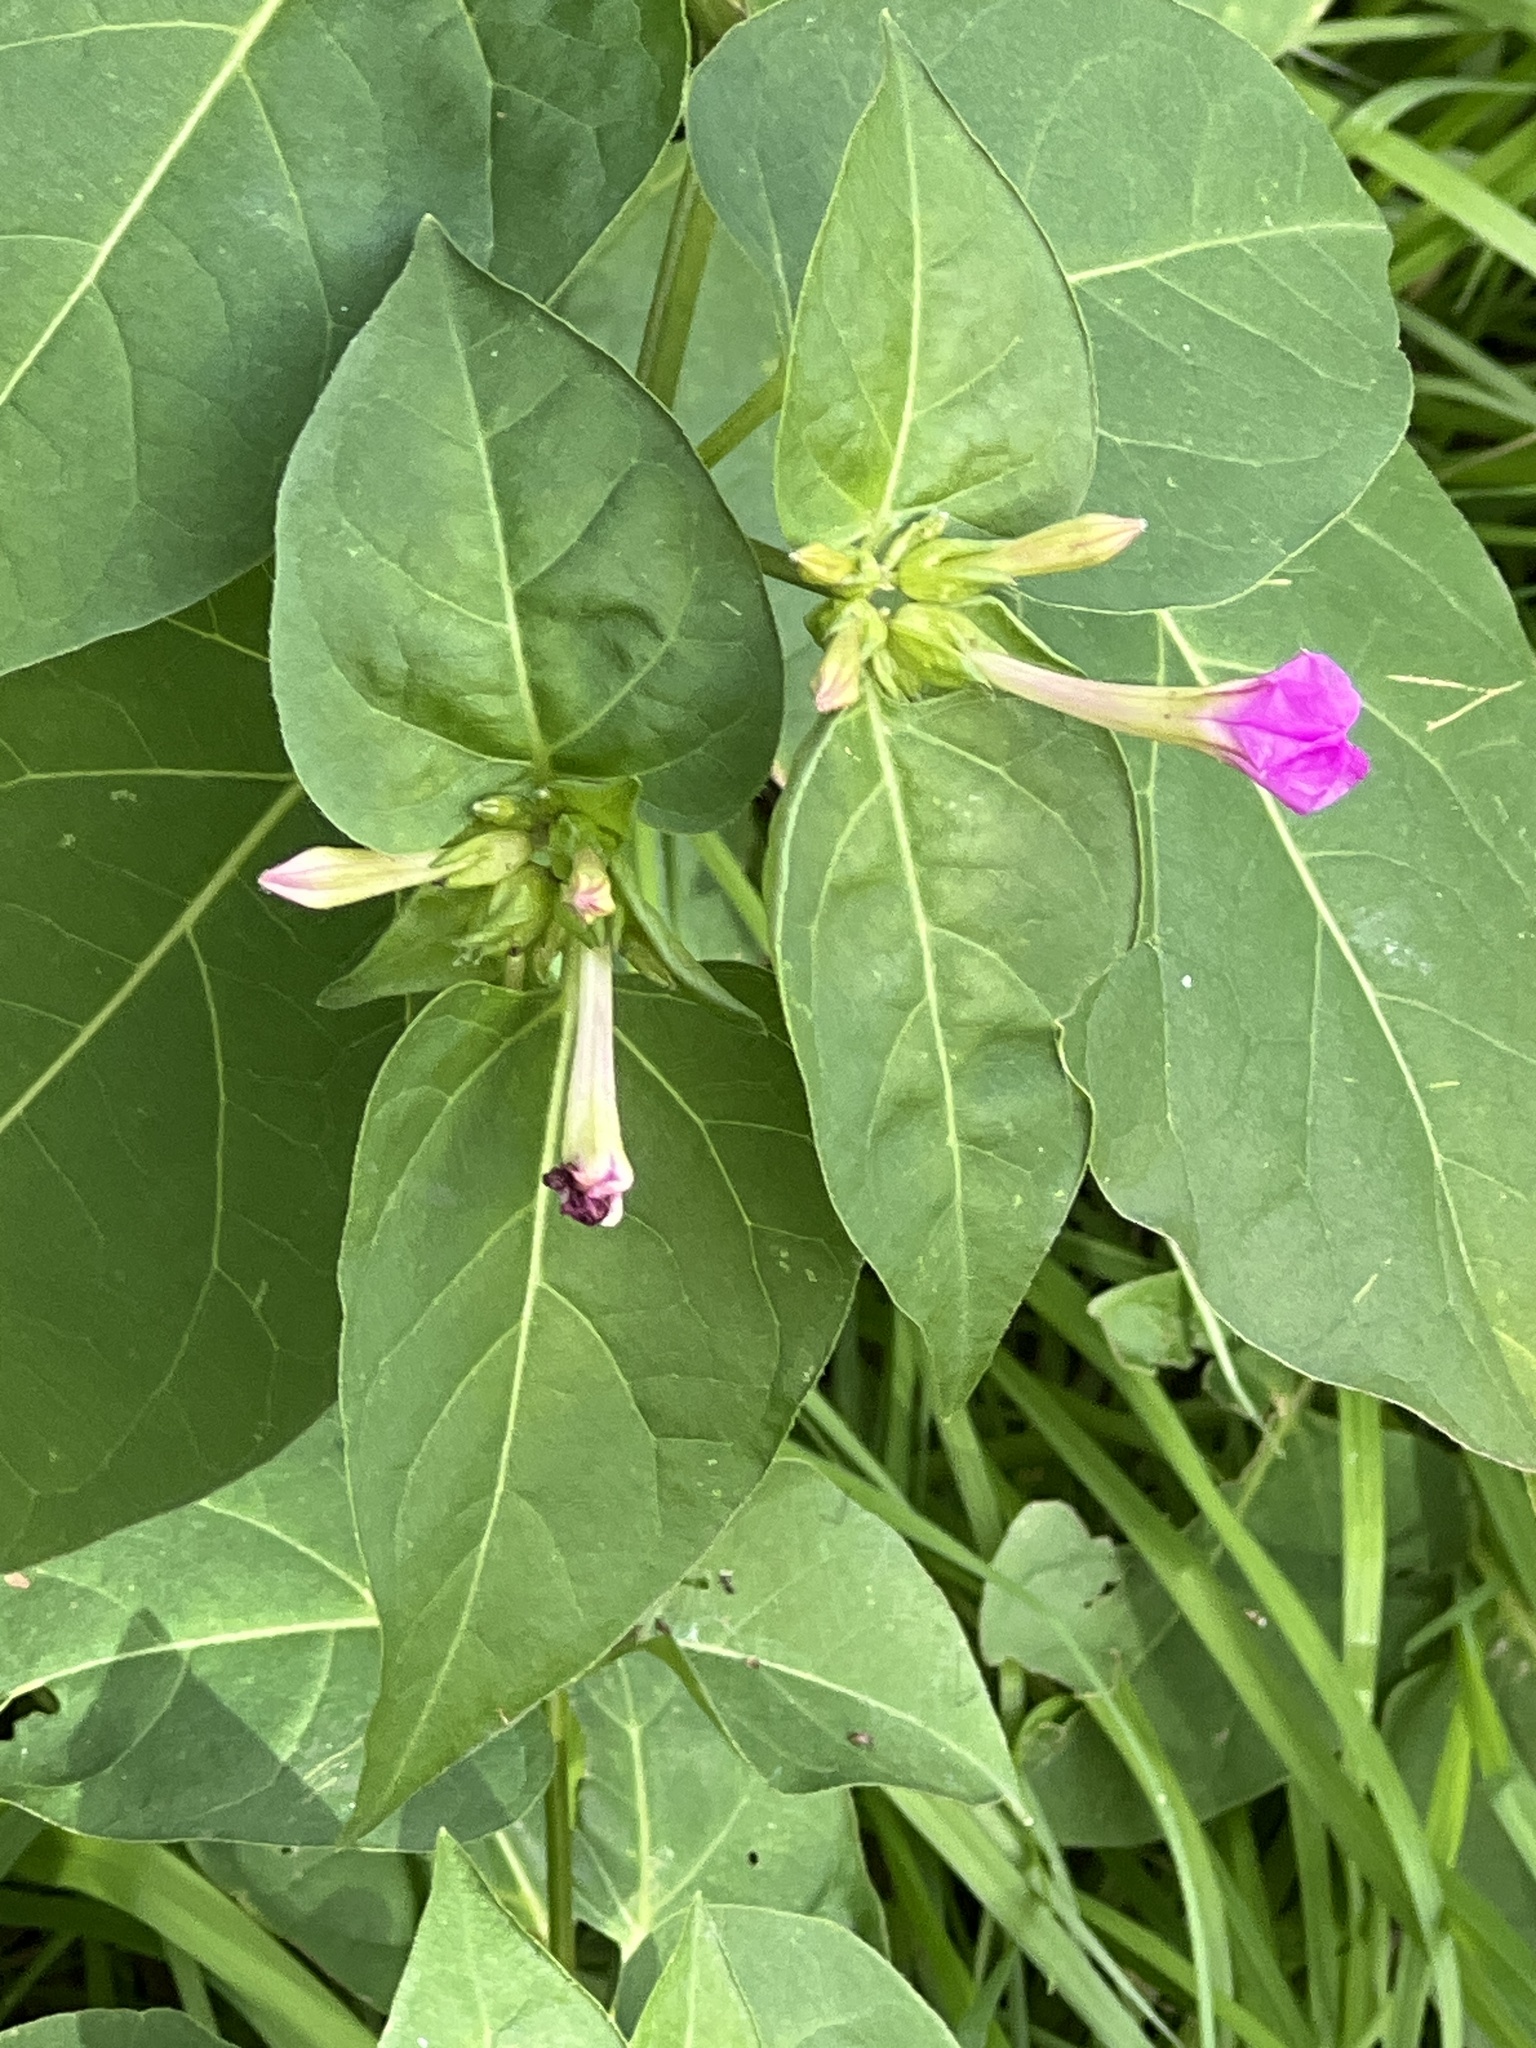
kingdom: Plantae
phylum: Tracheophyta
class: Magnoliopsida
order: Caryophyllales
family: Nyctaginaceae
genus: Mirabilis
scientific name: Mirabilis jalapa
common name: Marvel-of-peru
